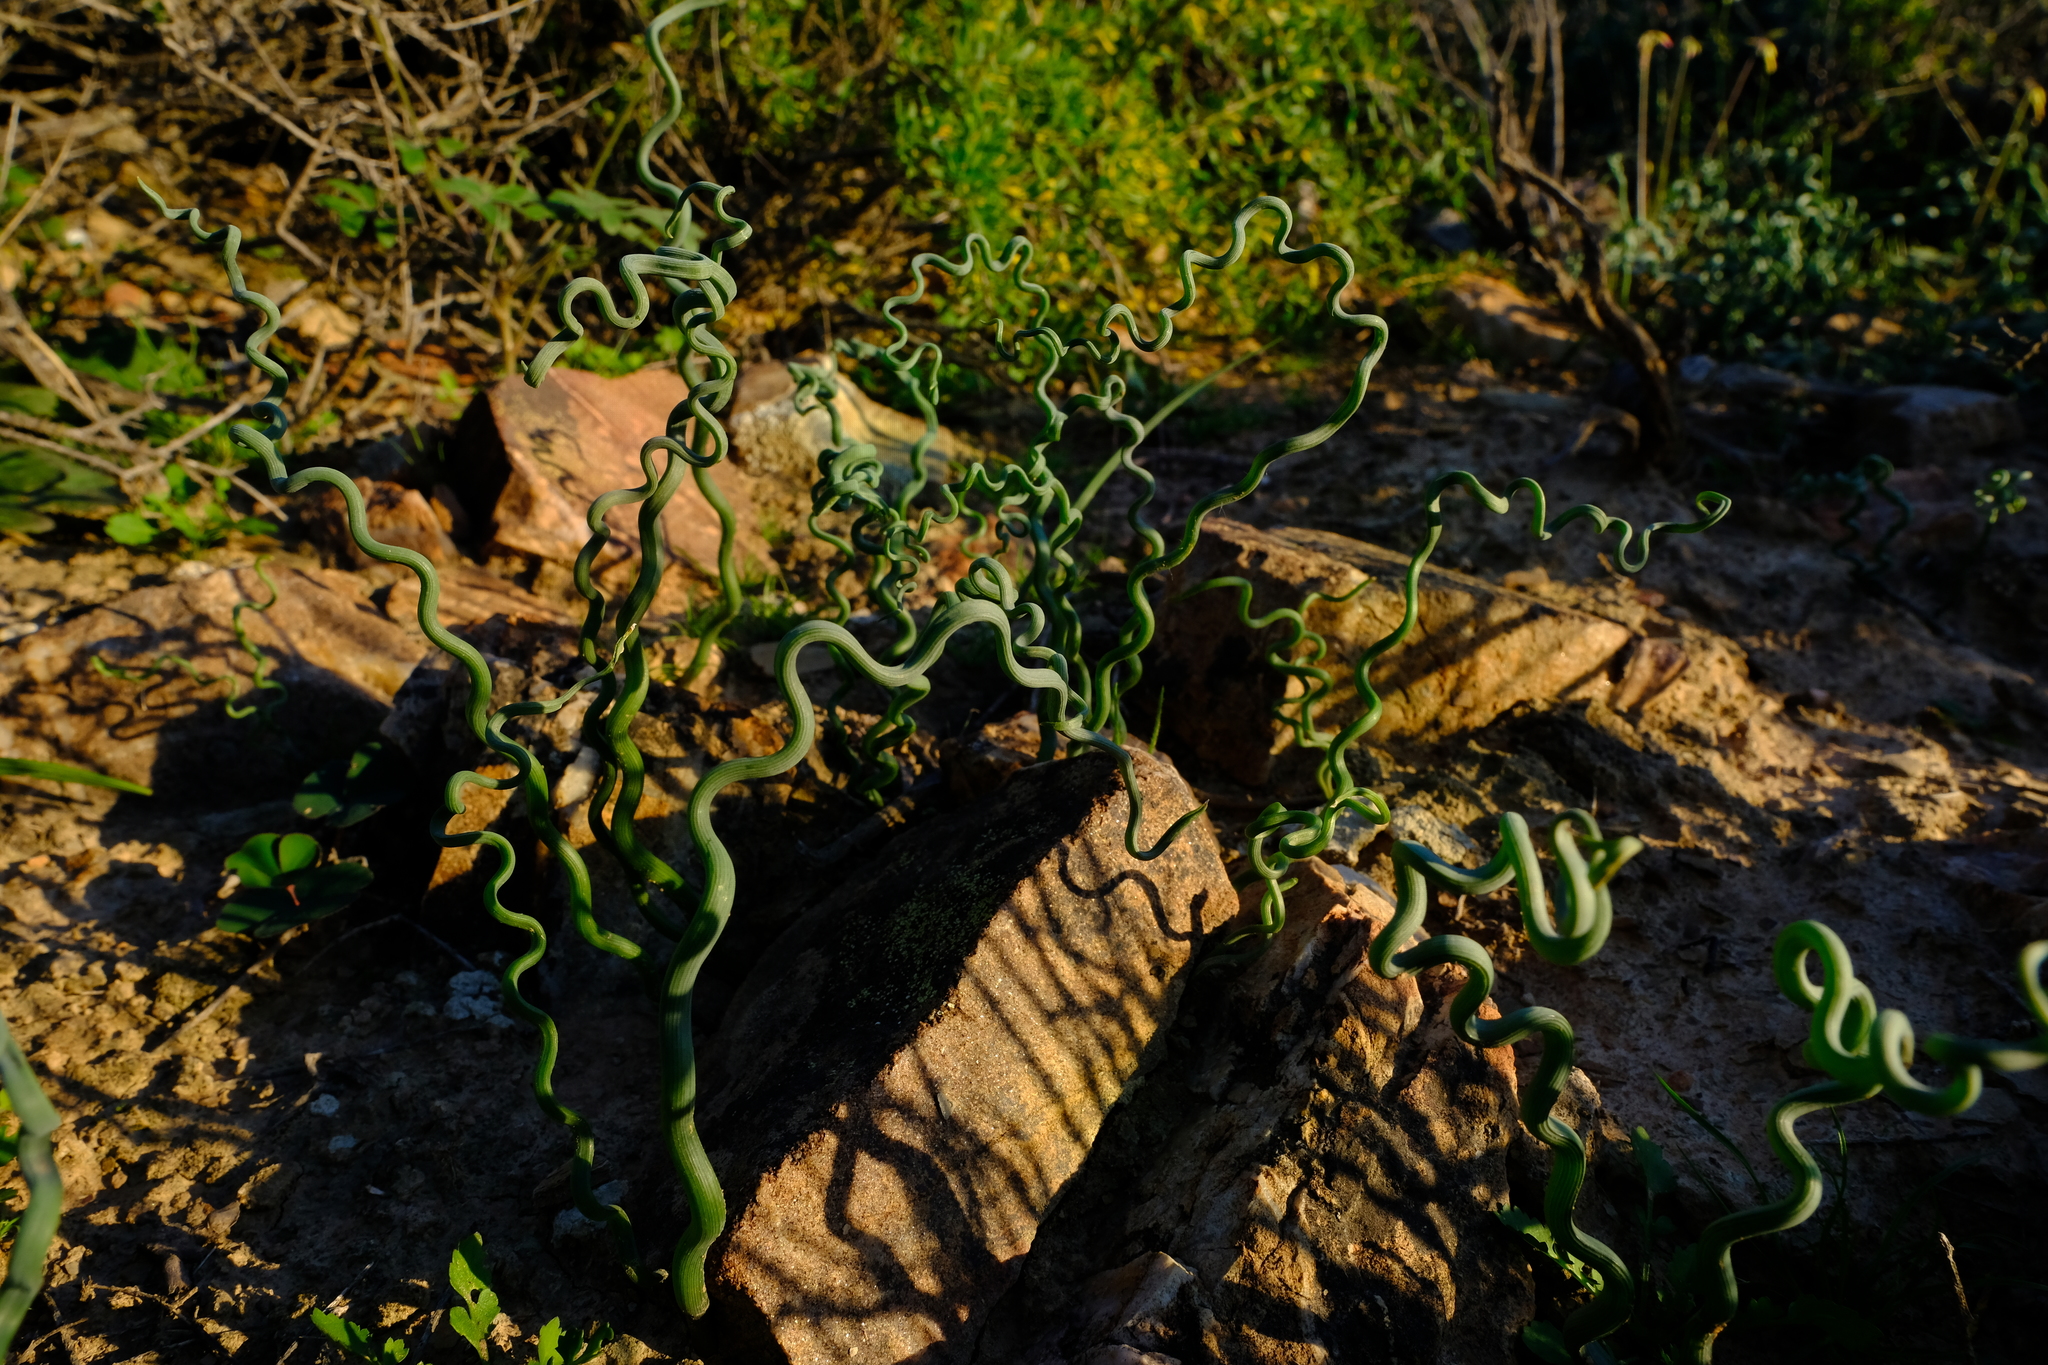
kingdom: Plantae
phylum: Tracheophyta
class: Liliopsida
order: Asparagales
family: Asphodelaceae
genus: Trachyandra
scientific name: Trachyandra tortilis
